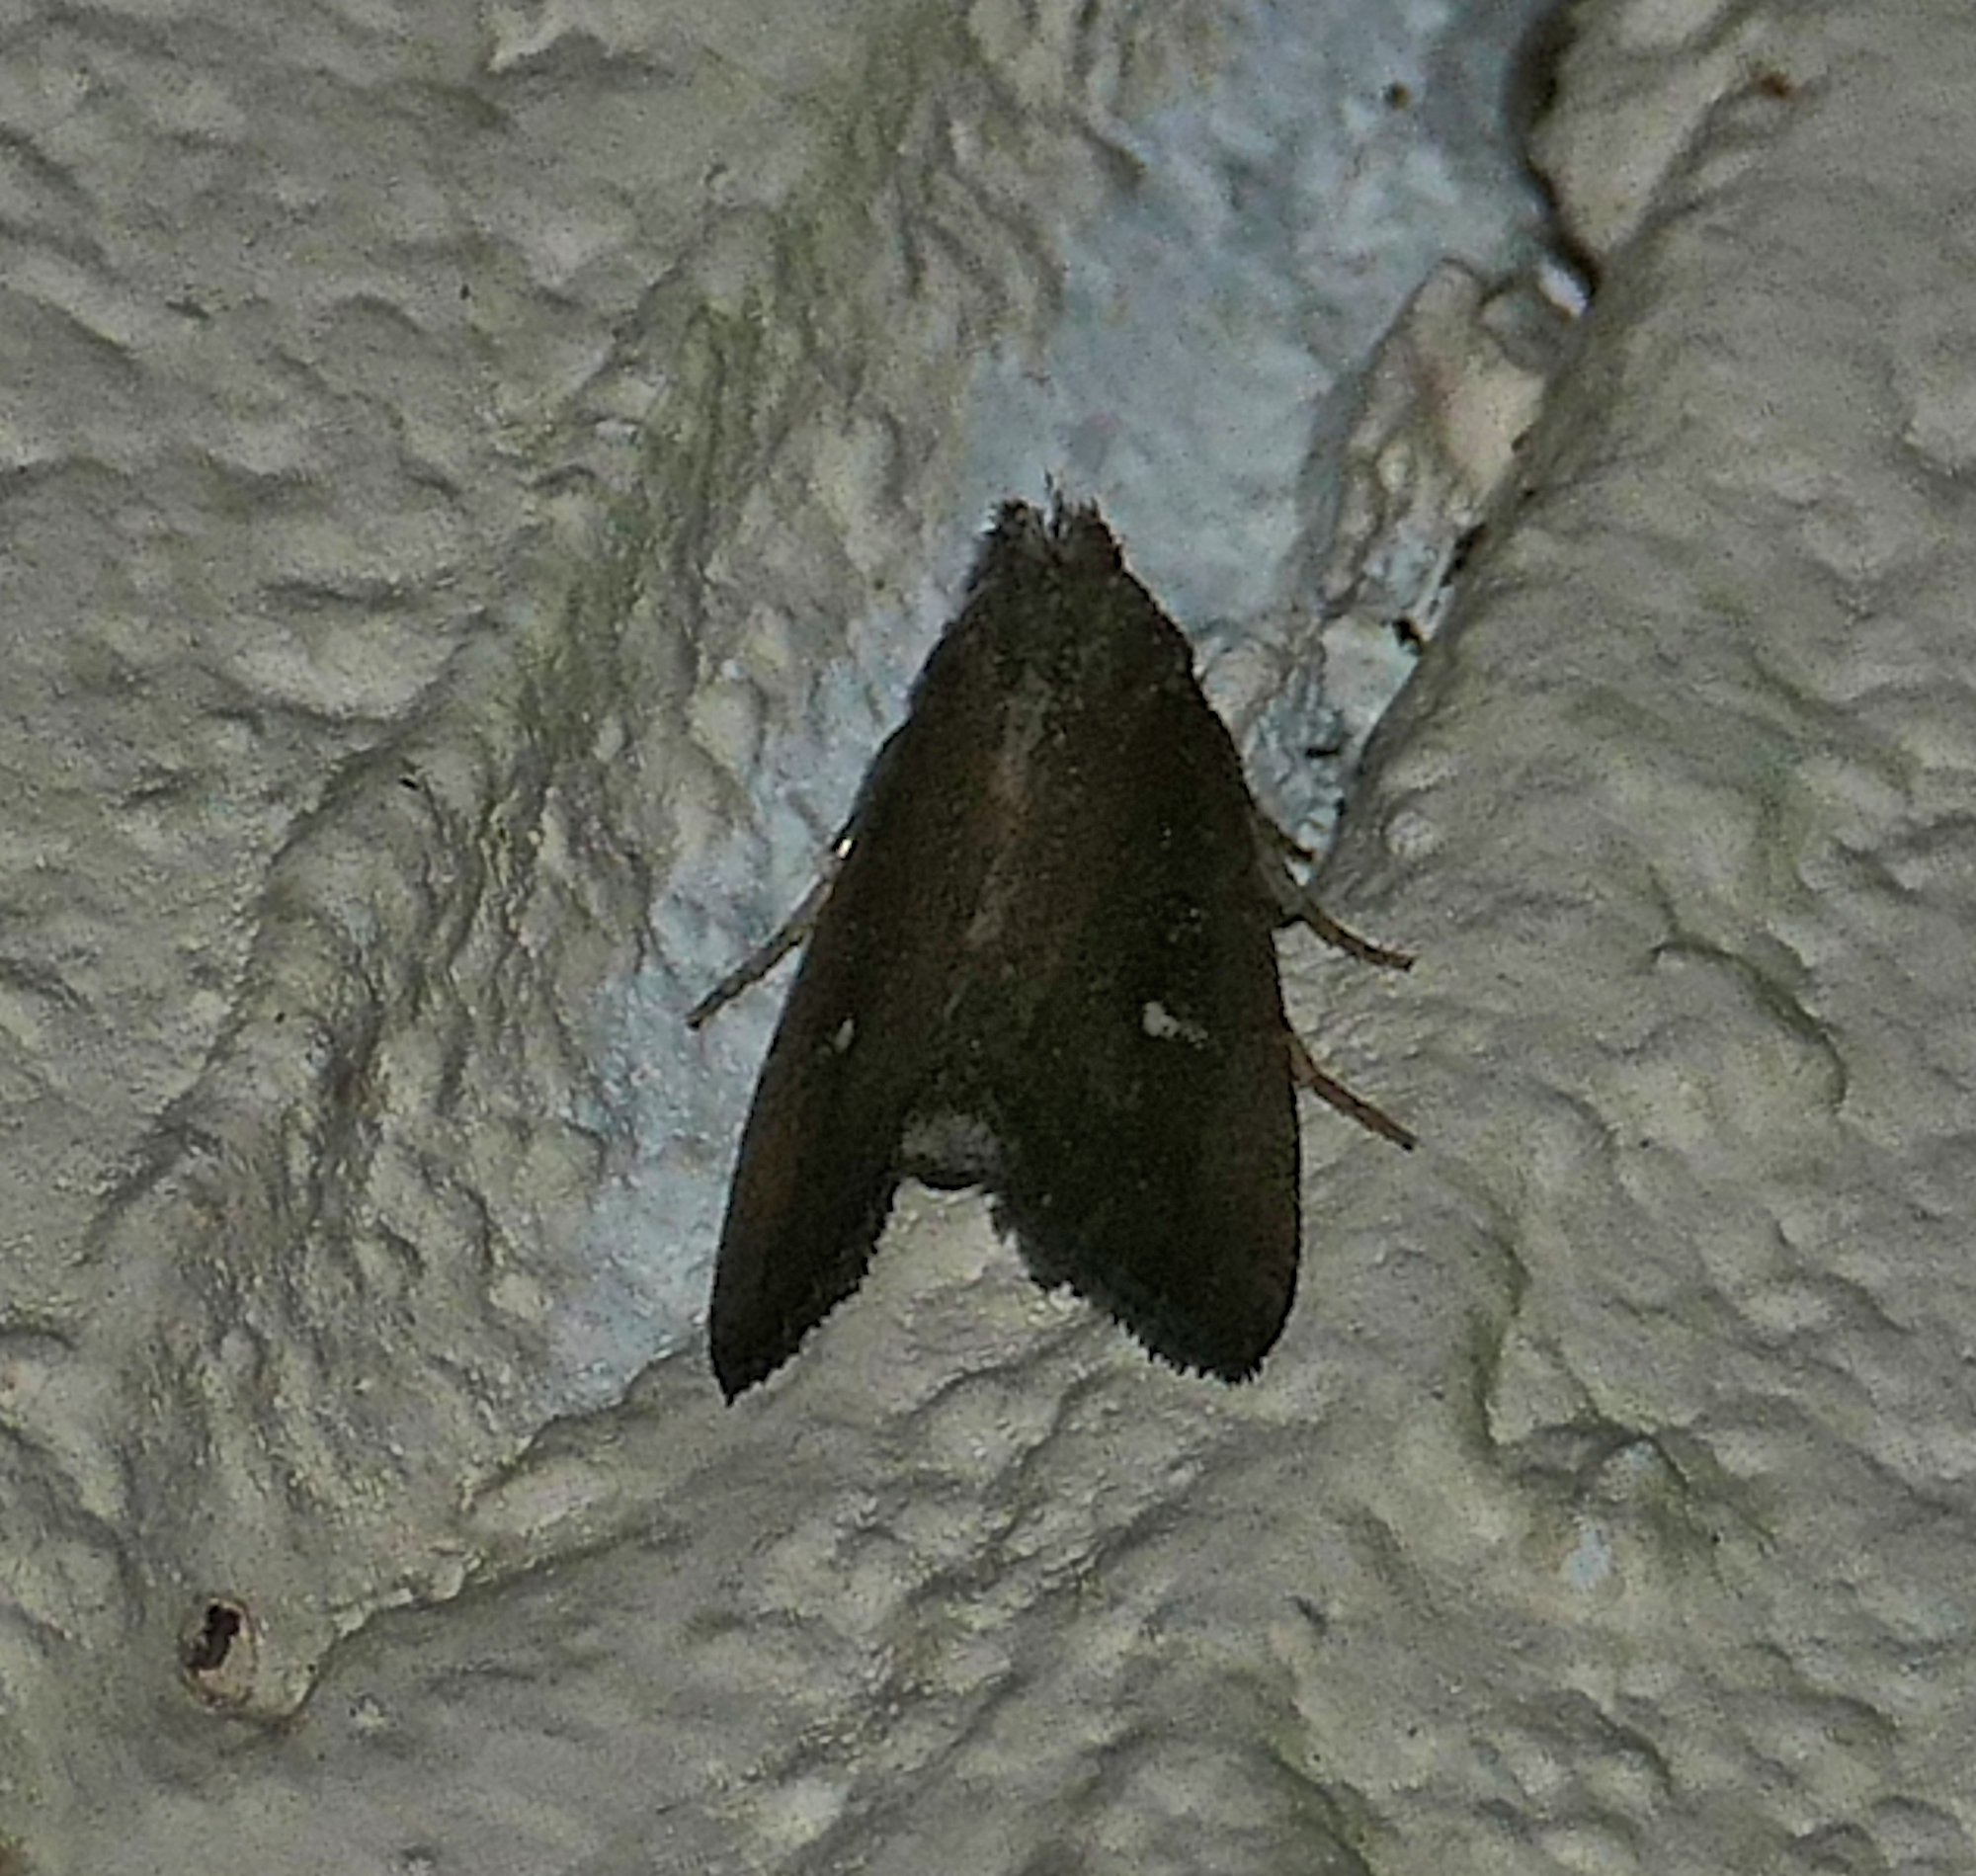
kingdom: Animalia
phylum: Arthropoda
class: Insecta
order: Lepidoptera
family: Noctuidae
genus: Condica
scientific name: Condica videns
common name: White-dotted groundling
